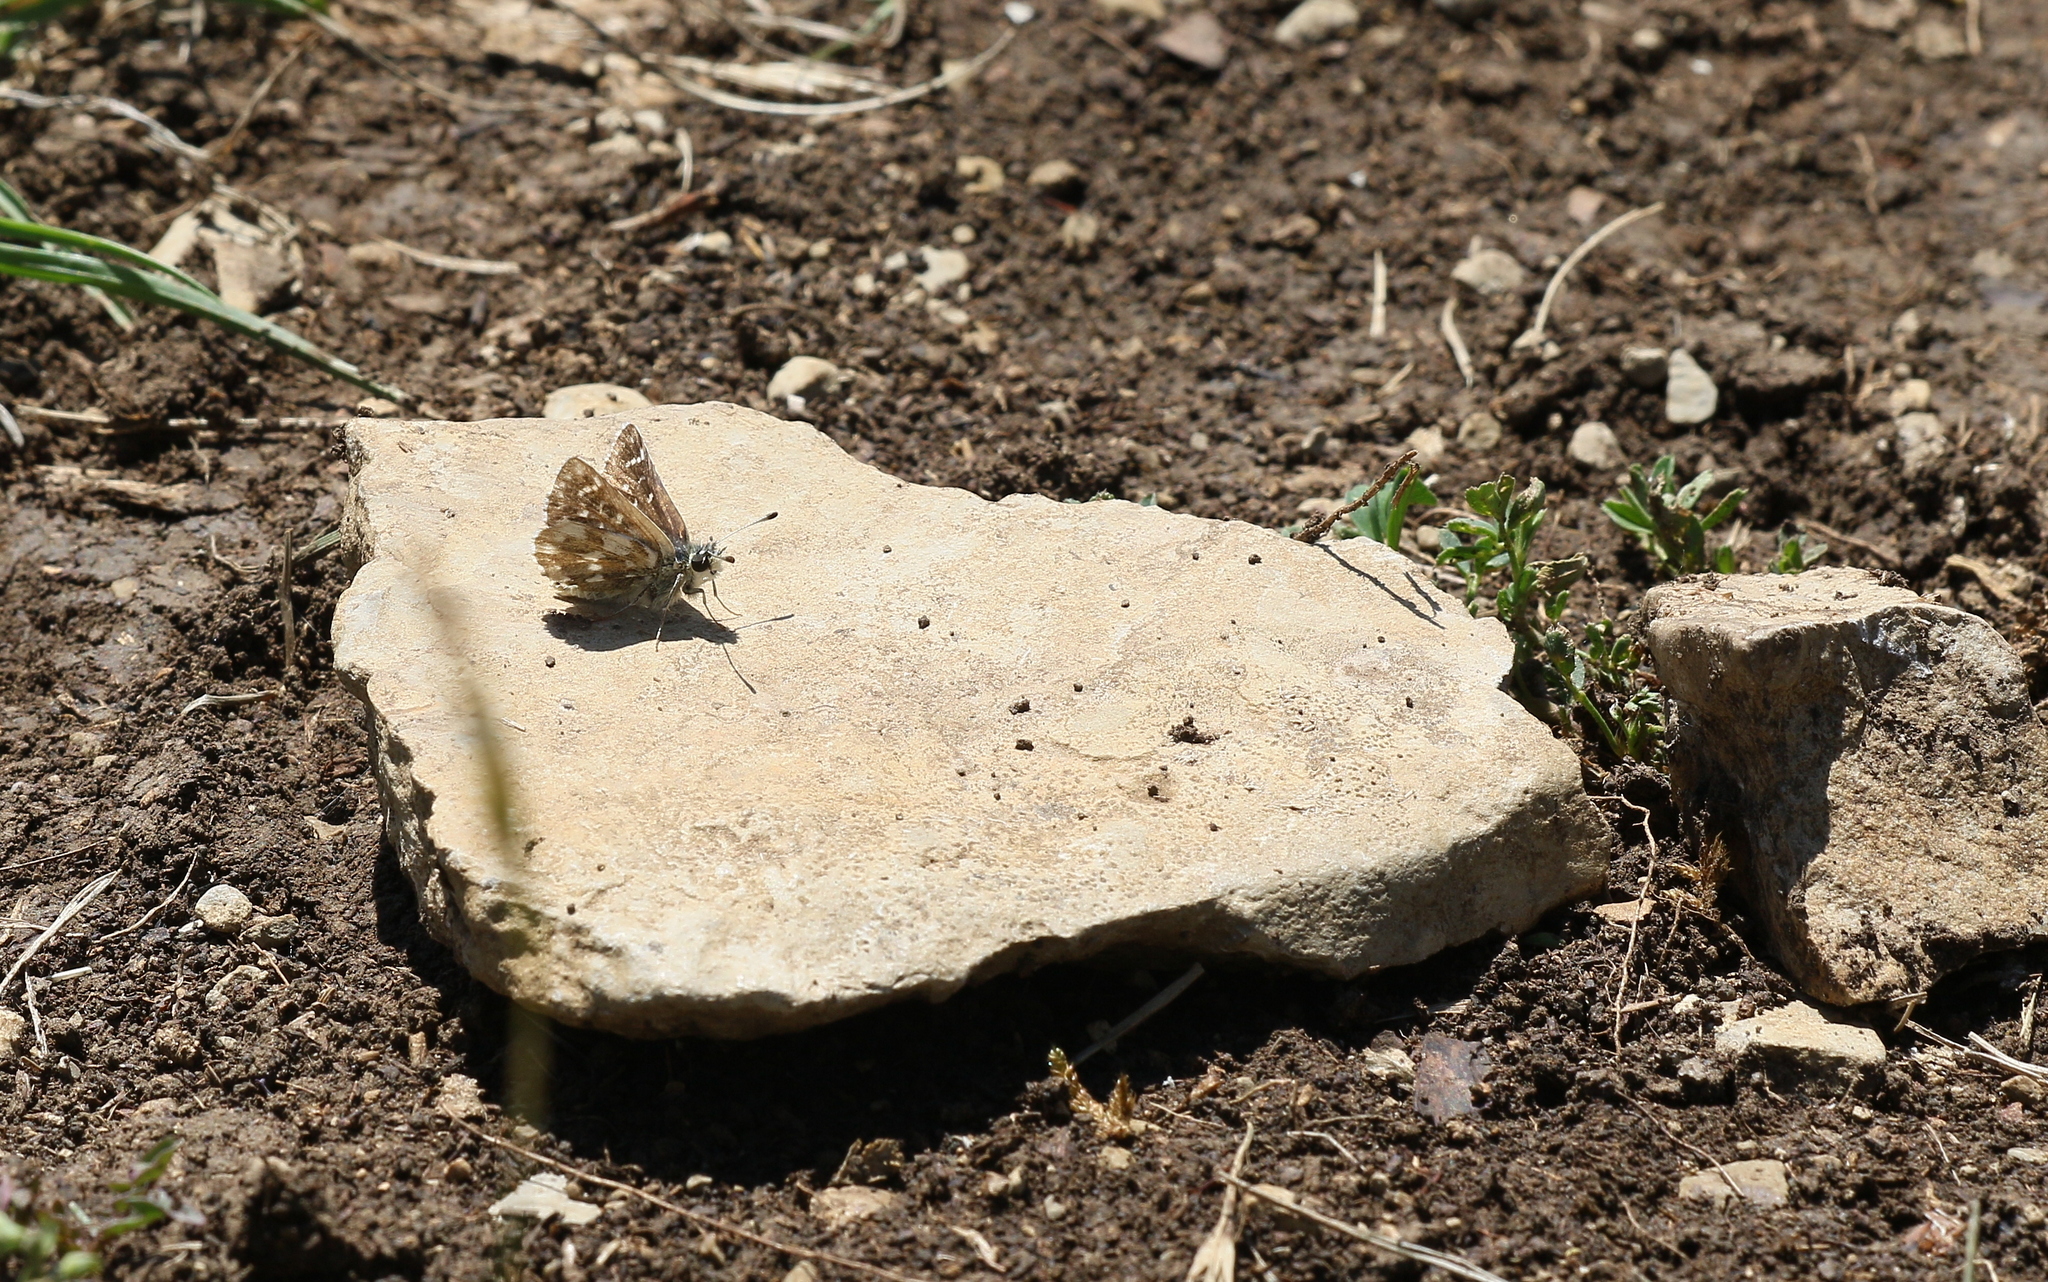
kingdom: Animalia
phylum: Arthropoda
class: Insecta
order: Lepidoptera
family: Hesperiidae
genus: Spialia
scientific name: Spialia sertorius
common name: Red underwing skipper
